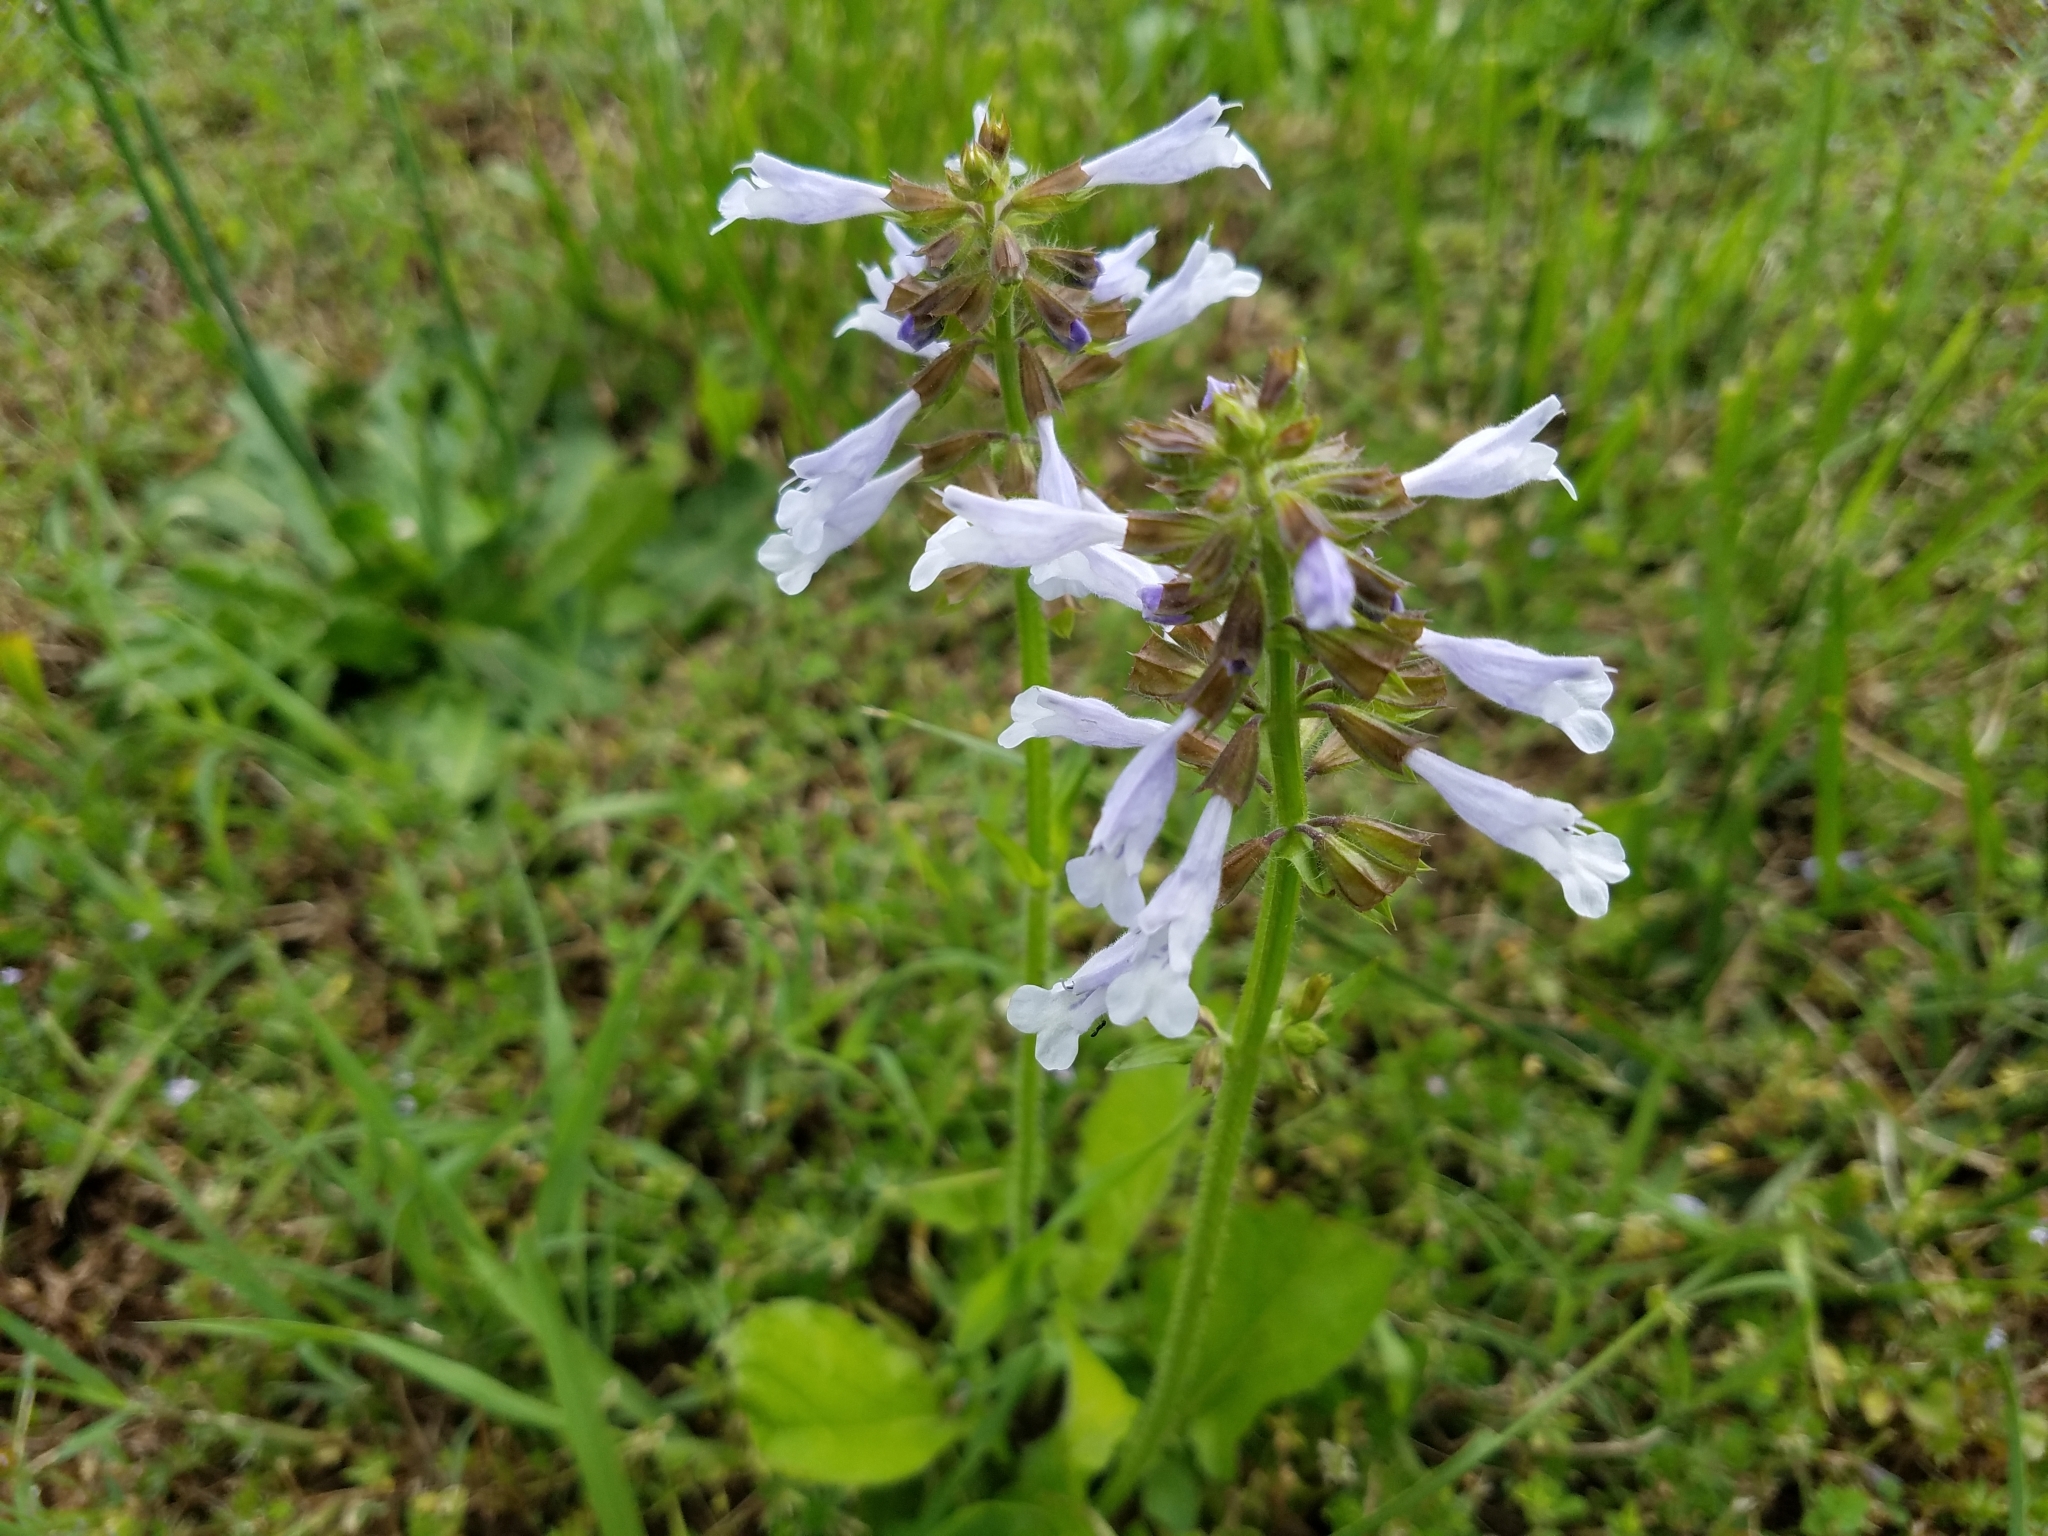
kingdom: Plantae
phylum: Tracheophyta
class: Magnoliopsida
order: Lamiales
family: Lamiaceae
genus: Salvia
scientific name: Salvia lyrata
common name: Cancerweed
